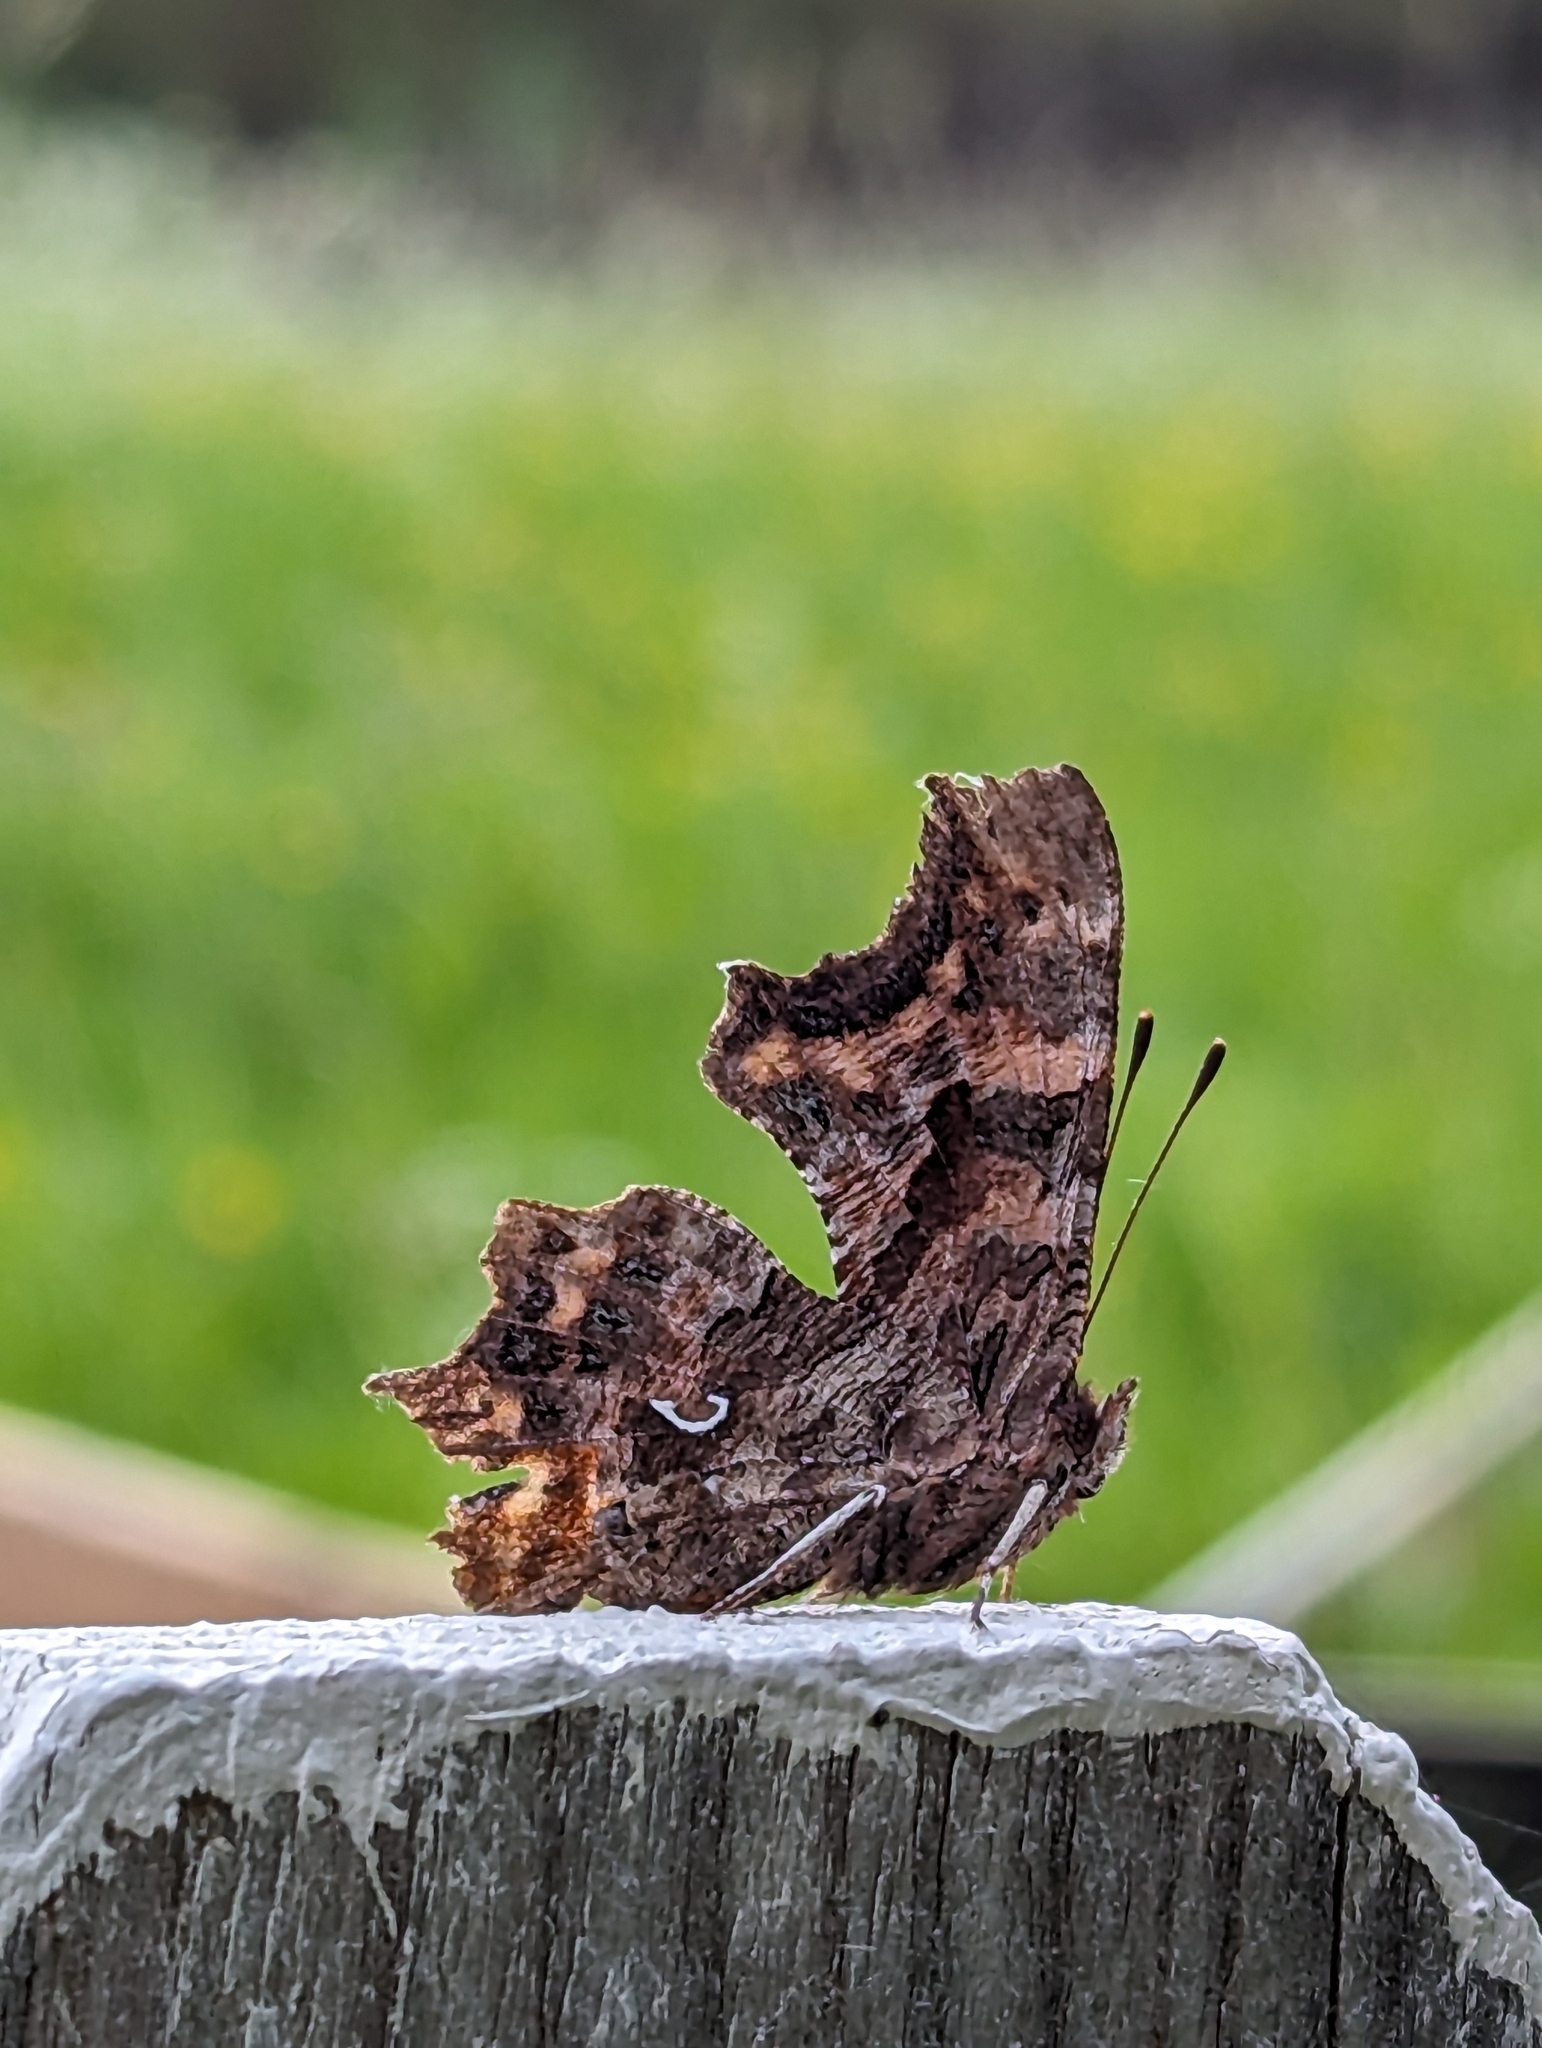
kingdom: Animalia
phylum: Arthropoda
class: Insecta
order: Lepidoptera
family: Nymphalidae
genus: Polygonia
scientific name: Polygonia c-album
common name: Comma
